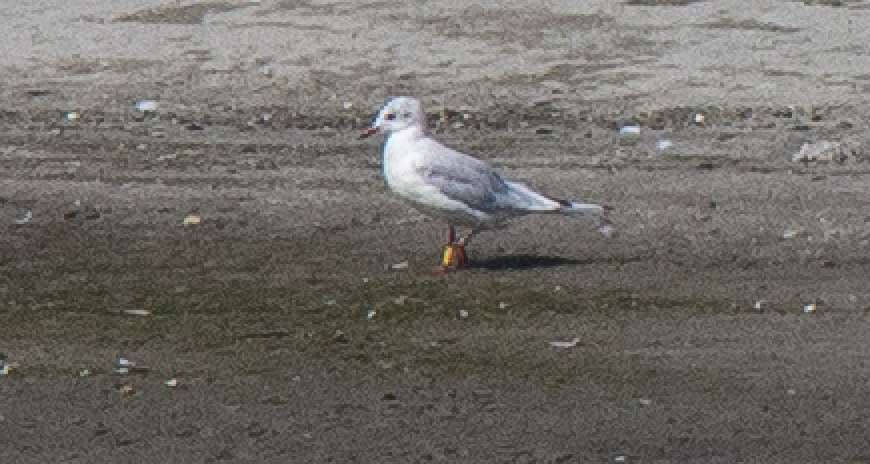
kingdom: Animalia
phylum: Chordata
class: Aves
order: Charadriiformes
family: Laridae
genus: Chroicocephalus
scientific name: Chroicocephalus ridibundus
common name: Black-headed gull
